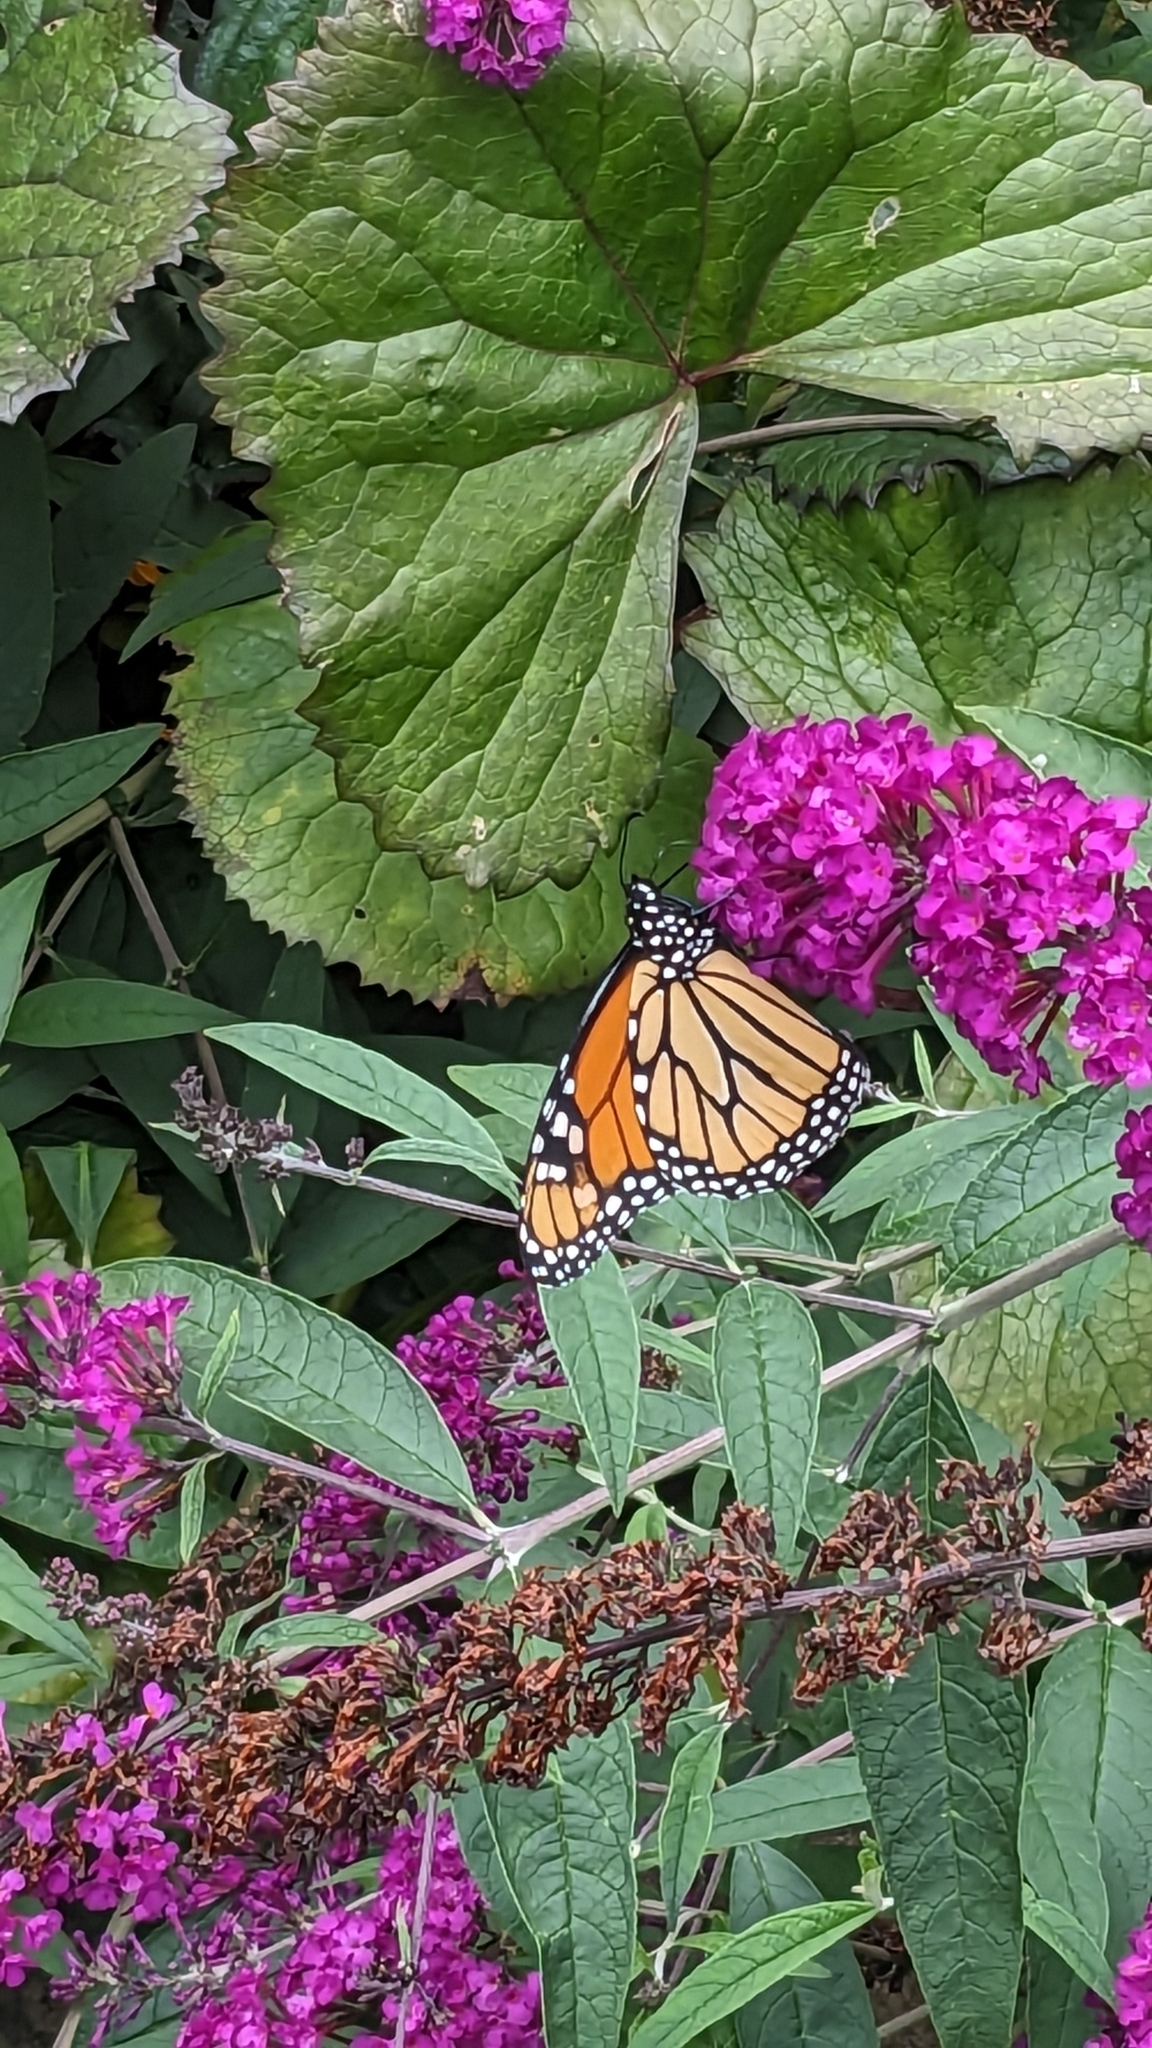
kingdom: Animalia
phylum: Arthropoda
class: Insecta
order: Lepidoptera
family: Nymphalidae
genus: Danaus
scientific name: Danaus plexippus
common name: Monarch
